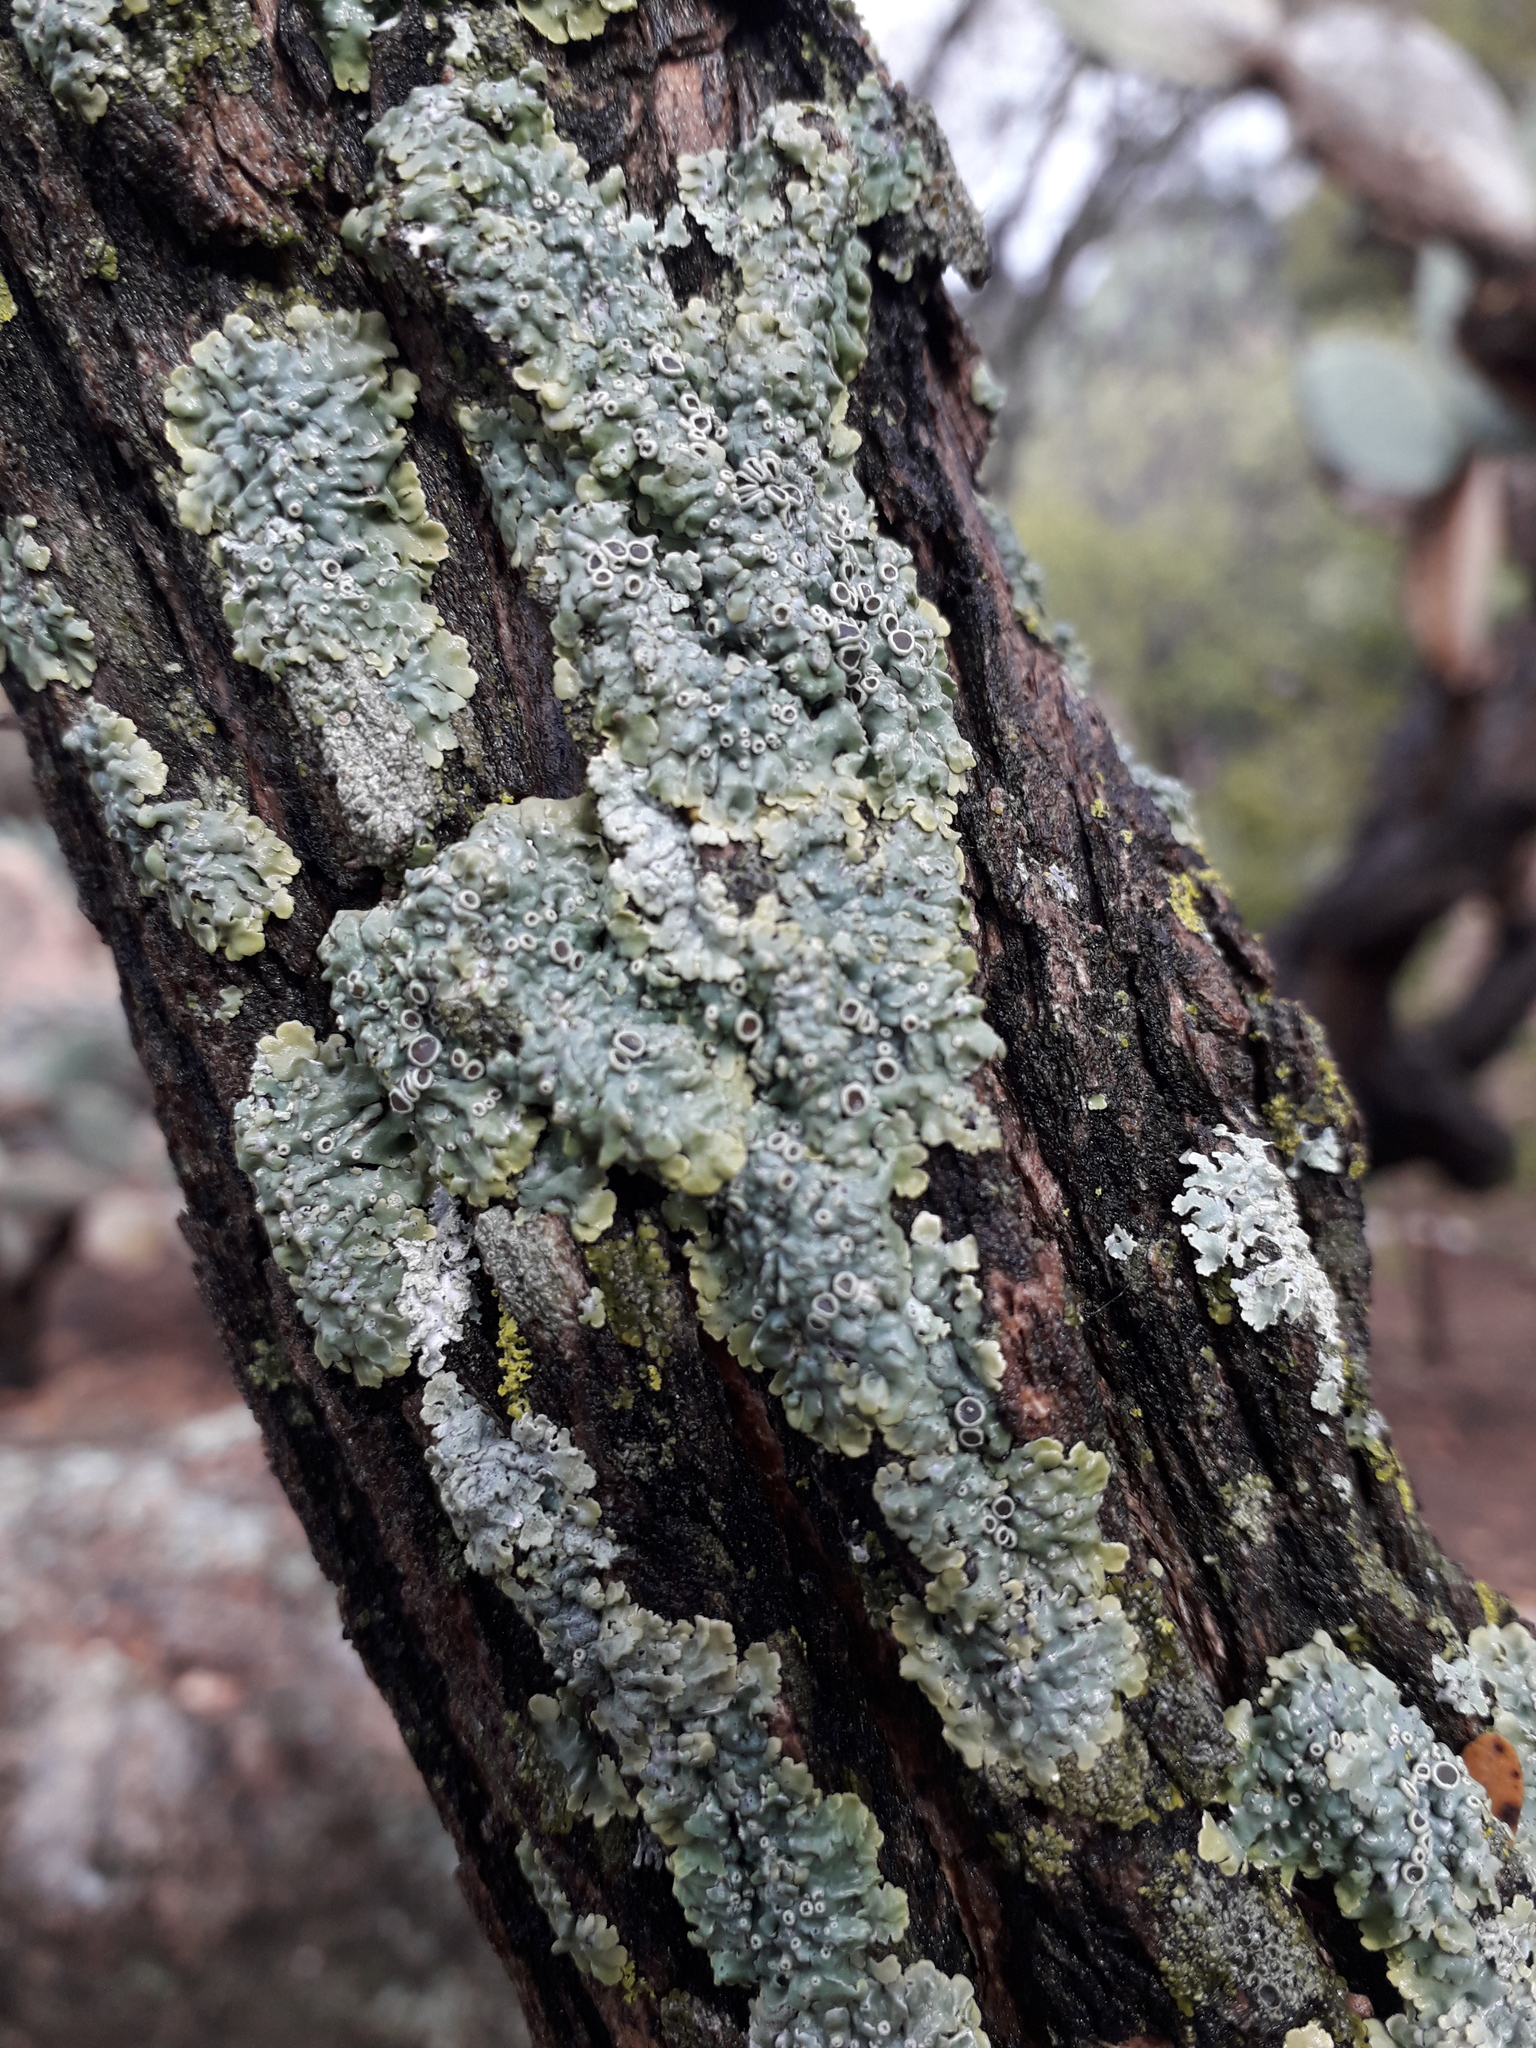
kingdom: Fungi
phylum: Ascomycota
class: Lecanoromycetes
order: Caliciales
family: Physciaceae
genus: Physcia
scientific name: Physcia biziana
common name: Frosted rosette lichen
